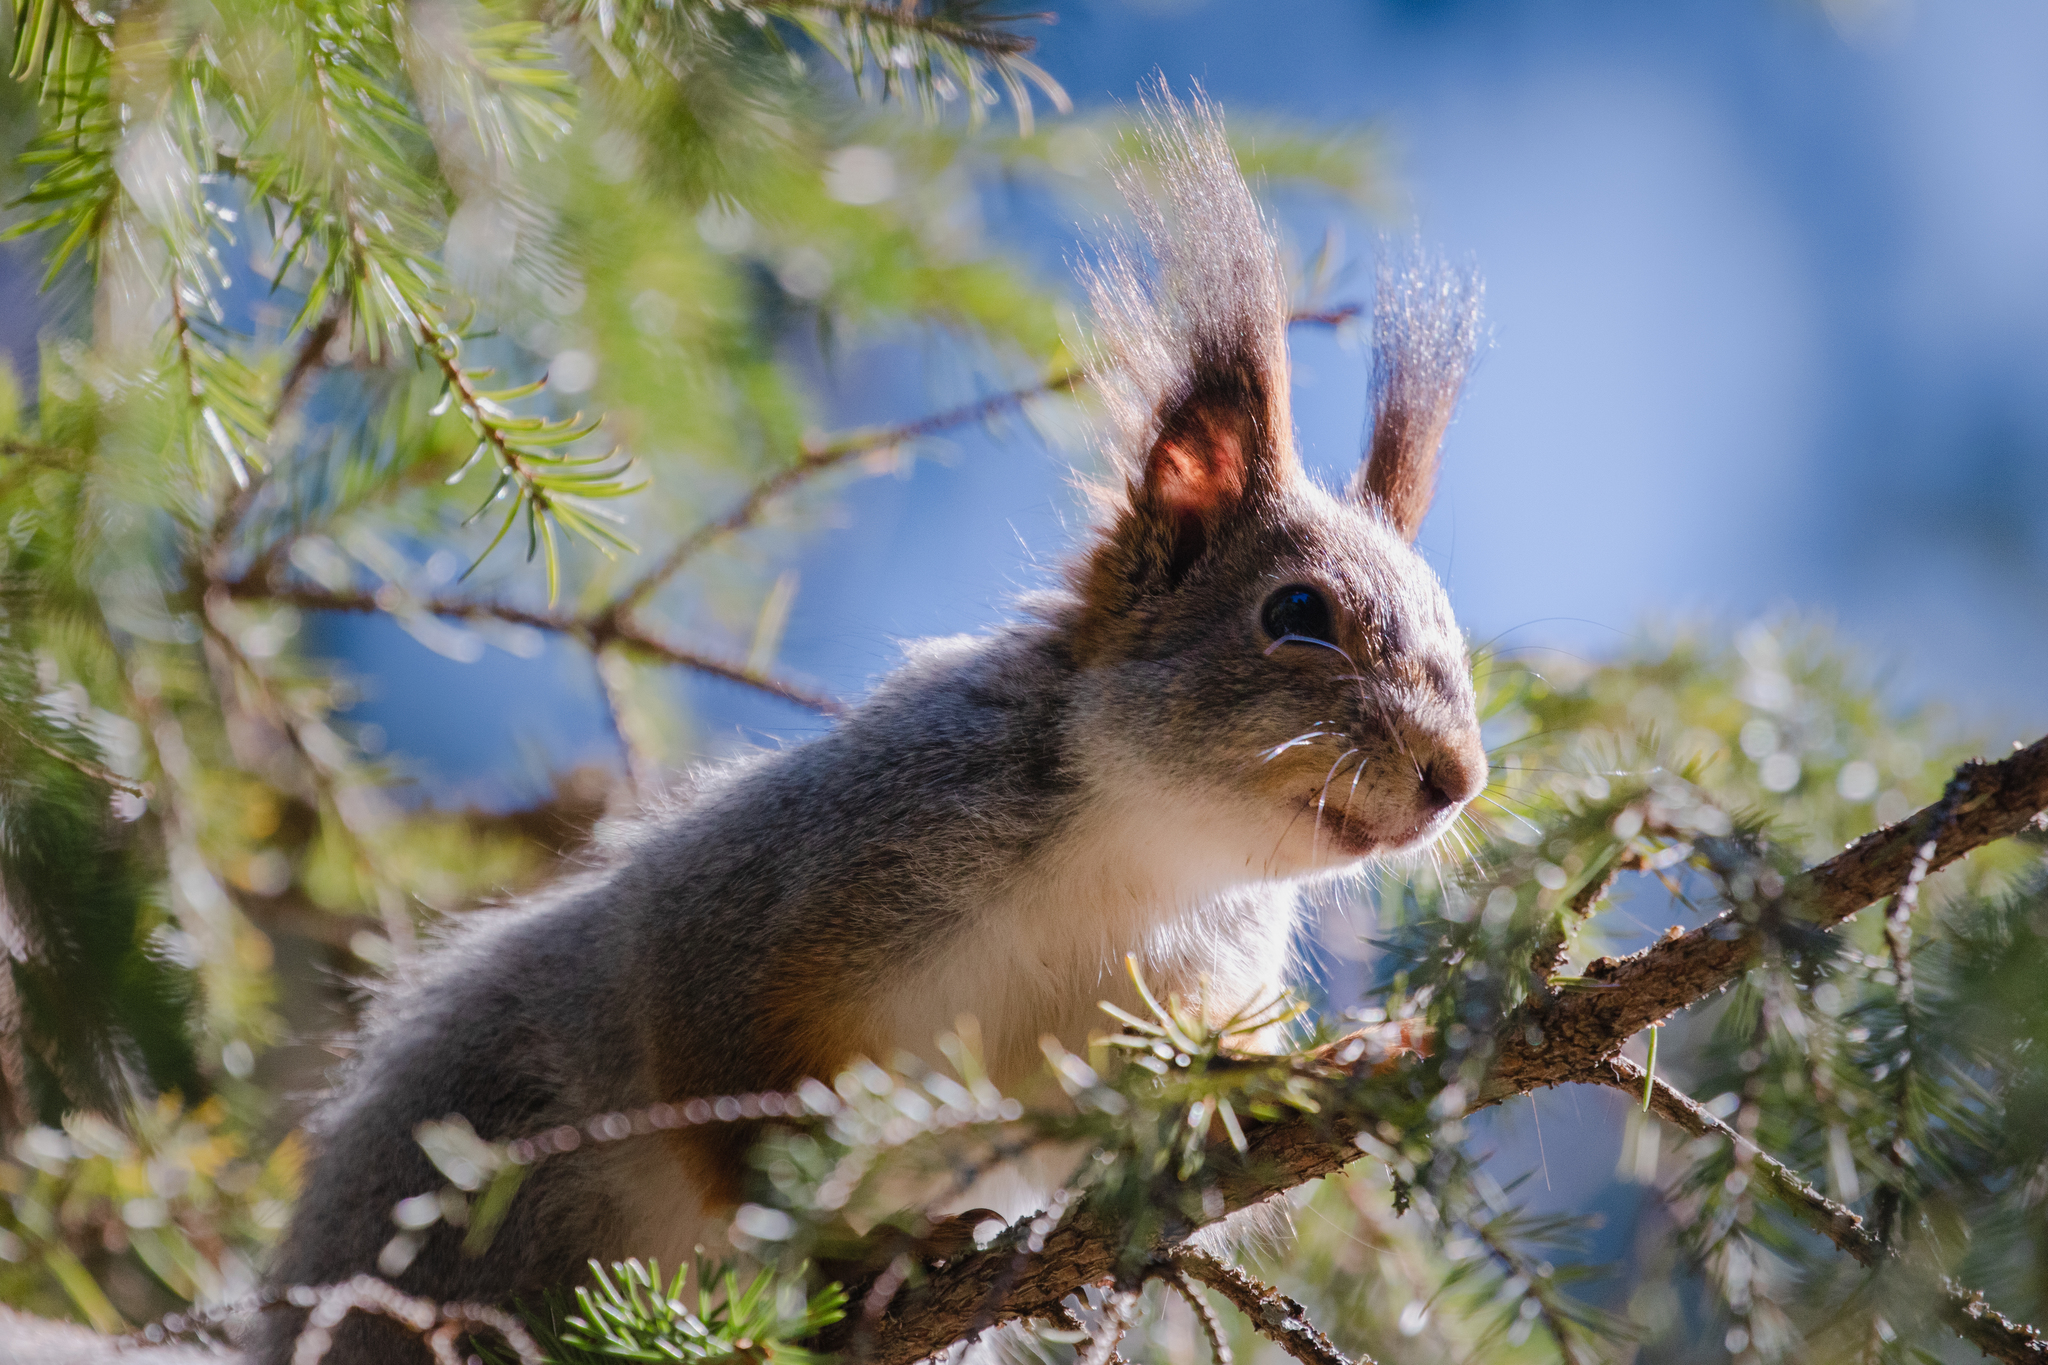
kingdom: Animalia
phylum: Chordata
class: Mammalia
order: Rodentia
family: Sciuridae
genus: Sciurus
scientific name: Sciurus vulgaris
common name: Eurasian red squirrel
